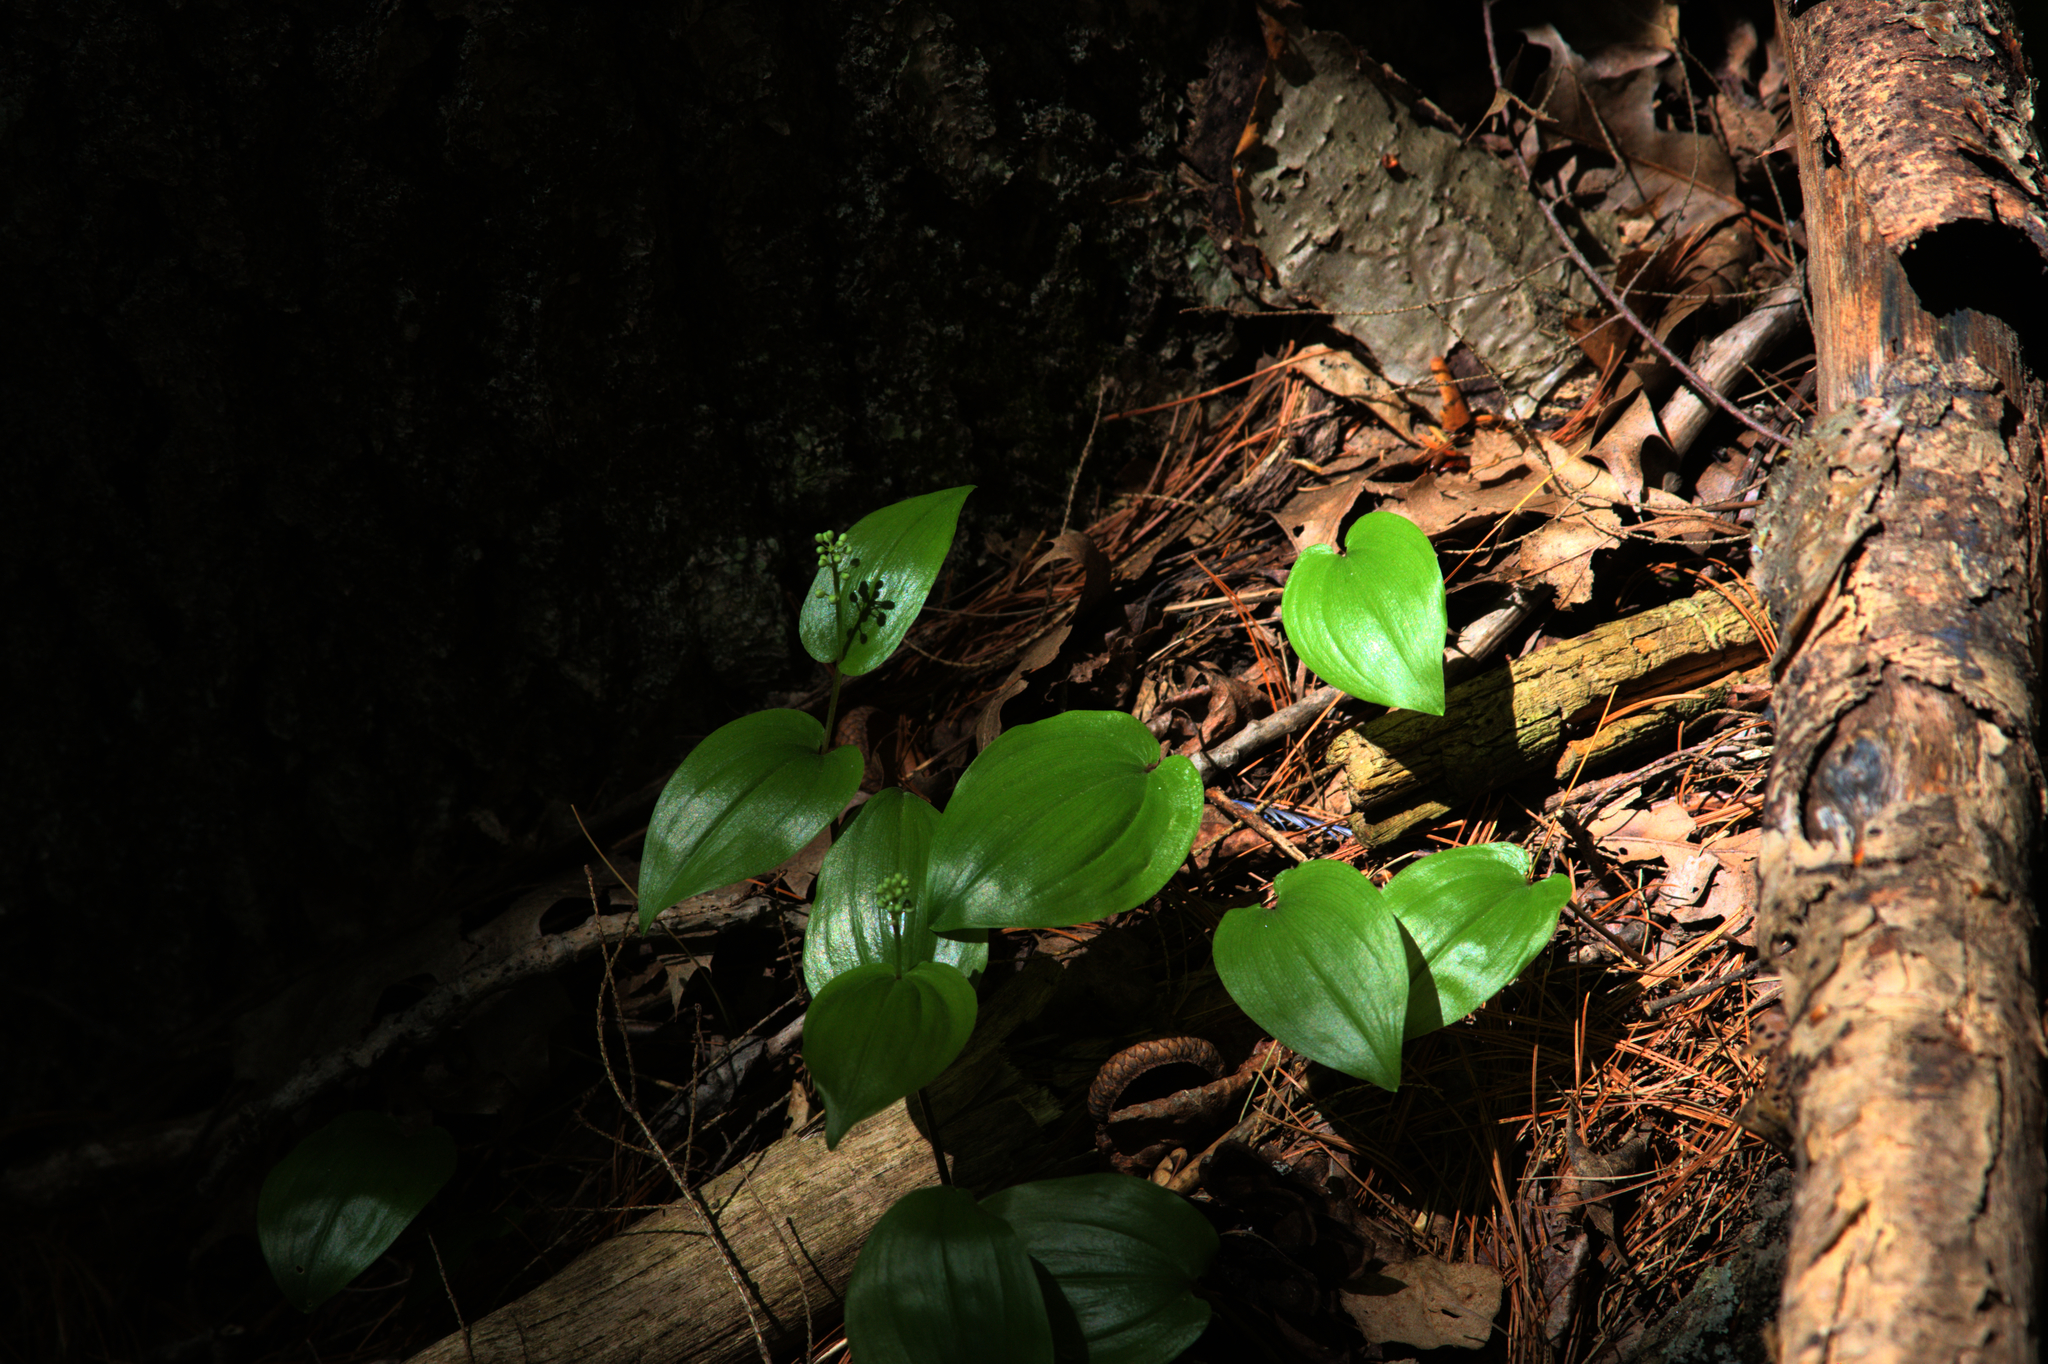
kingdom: Plantae
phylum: Tracheophyta
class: Liliopsida
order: Asparagales
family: Asparagaceae
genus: Maianthemum
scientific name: Maianthemum canadense
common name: False lily-of-the-valley
